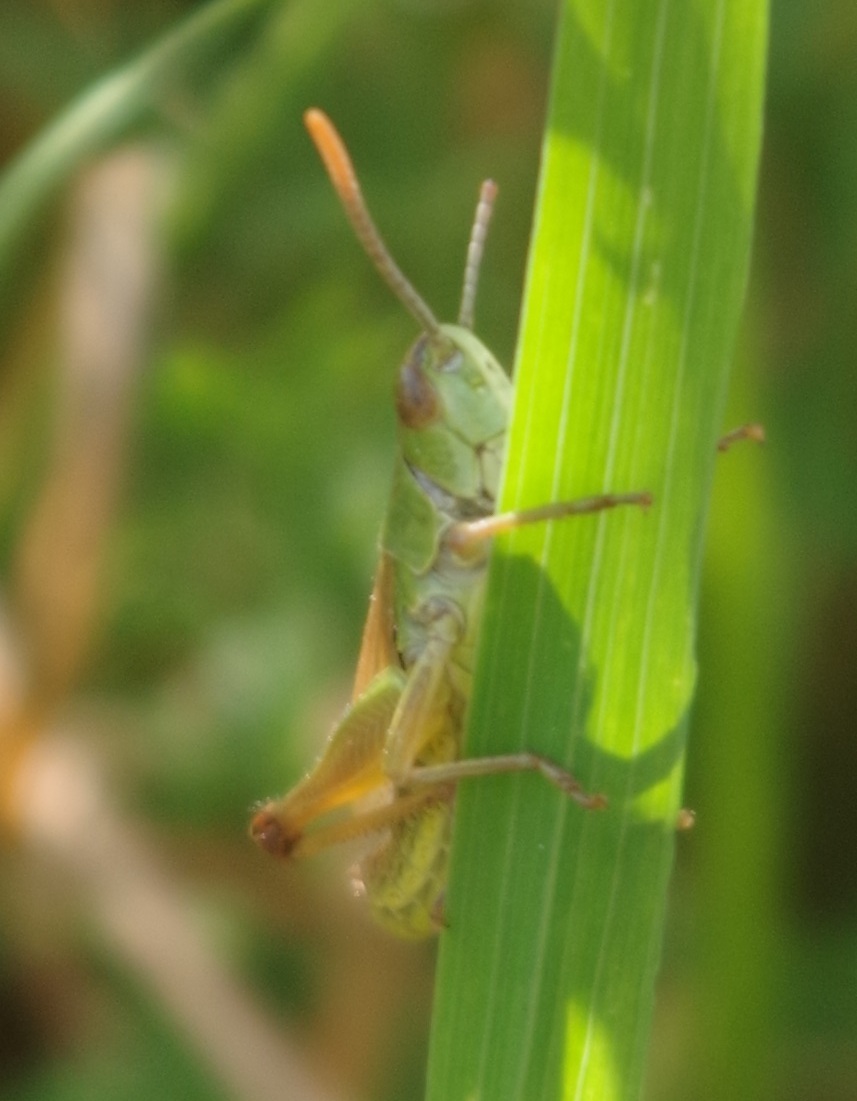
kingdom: Animalia
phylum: Arthropoda
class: Insecta
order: Orthoptera
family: Acrididae
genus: Pseudochorthippus
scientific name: Pseudochorthippus parallelus
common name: Meadow grasshopper
